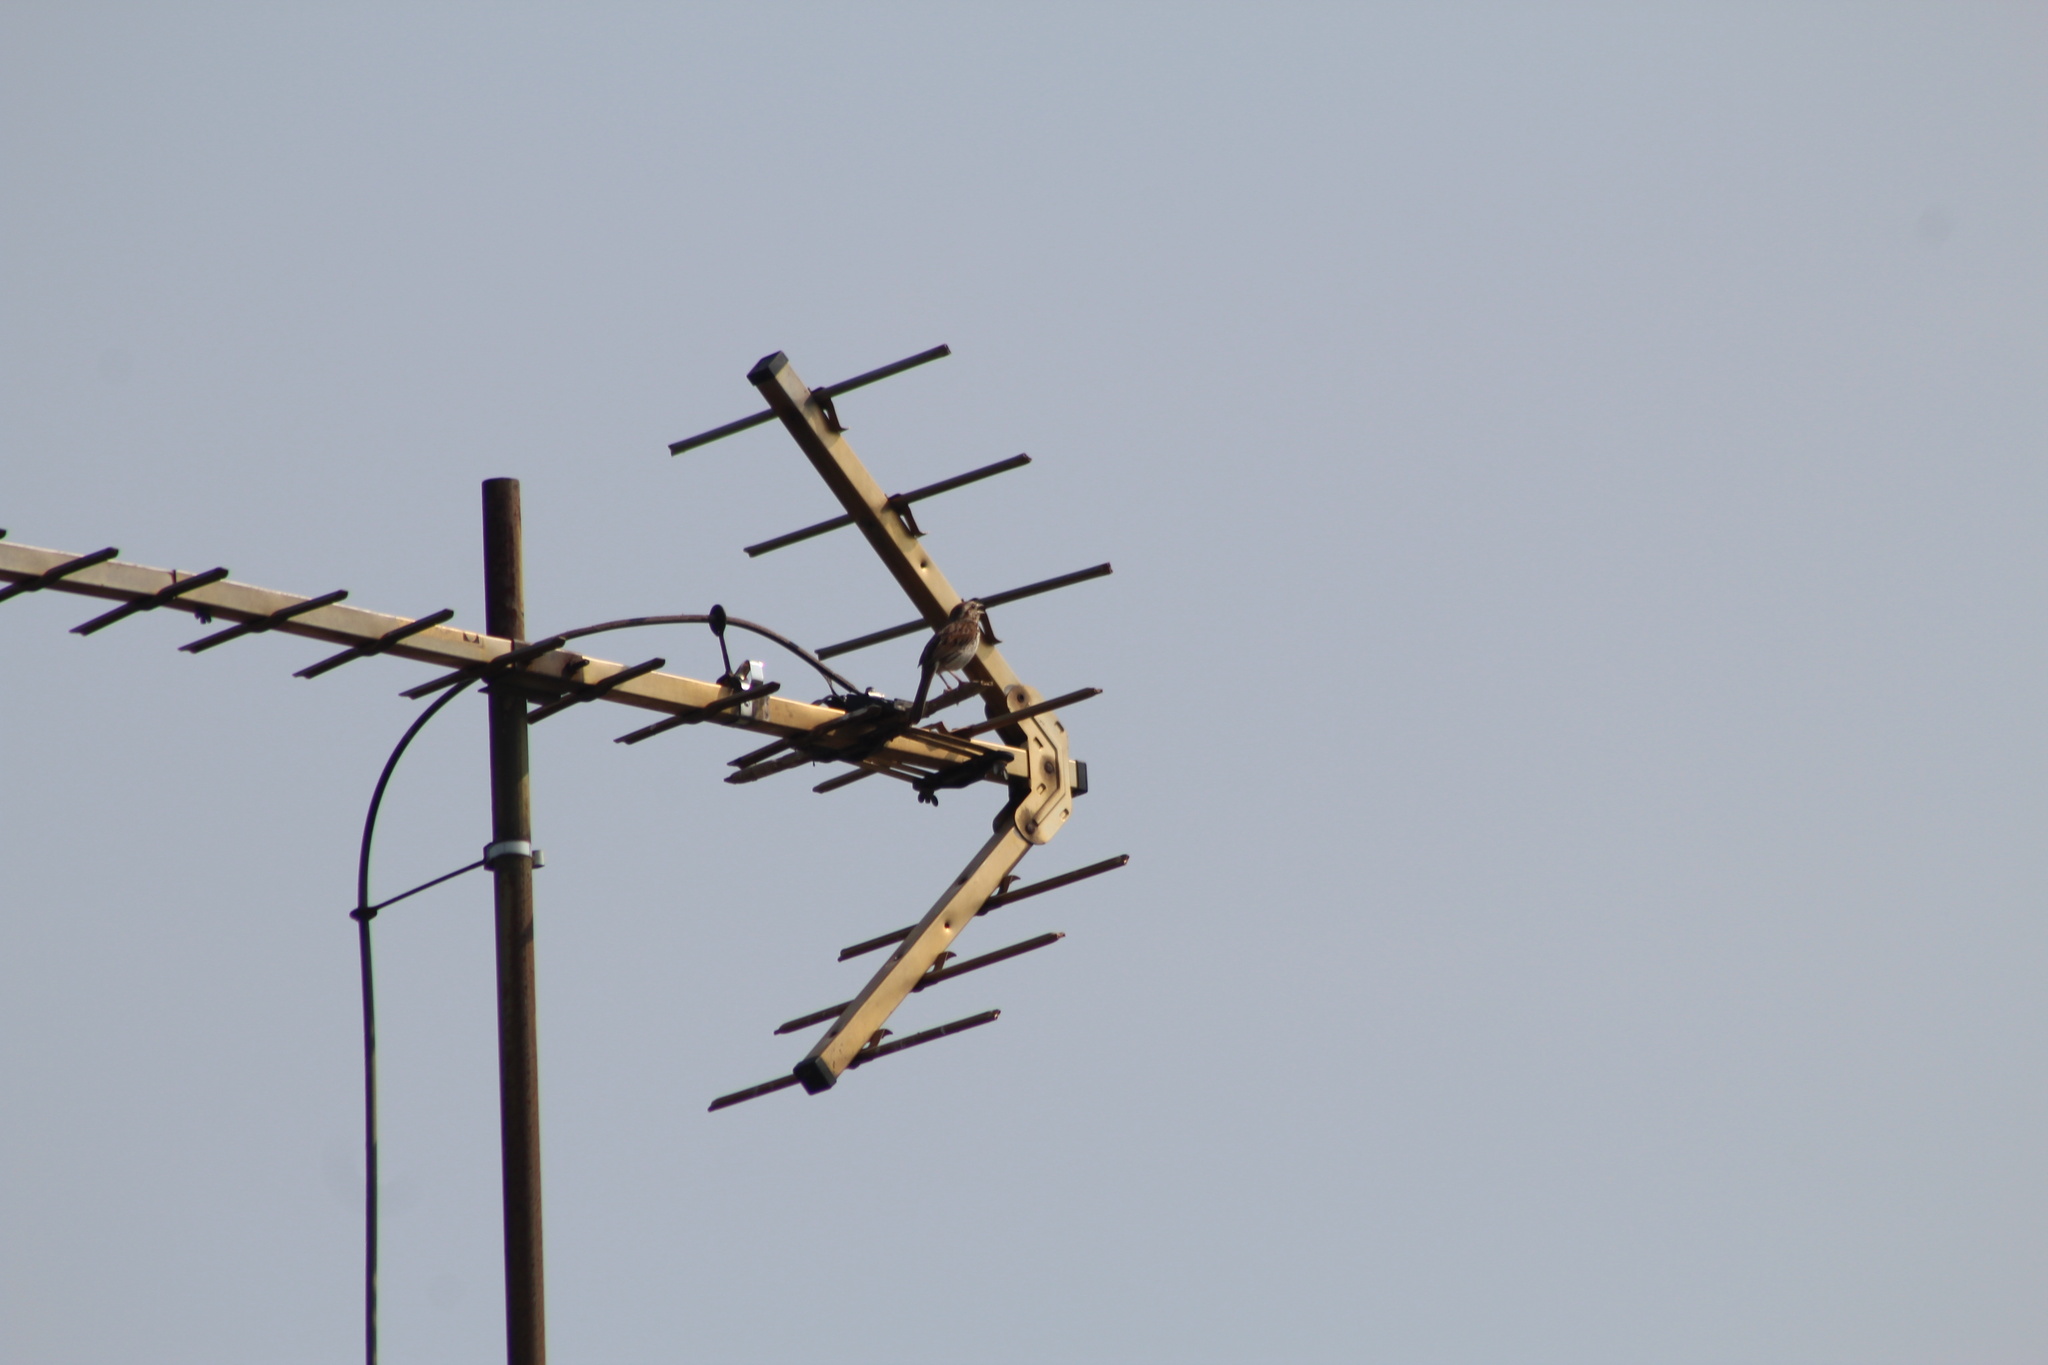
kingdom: Animalia
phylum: Chordata
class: Aves
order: Passeriformes
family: Passerellidae
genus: Melospiza
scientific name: Melospiza melodia
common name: Song sparrow
